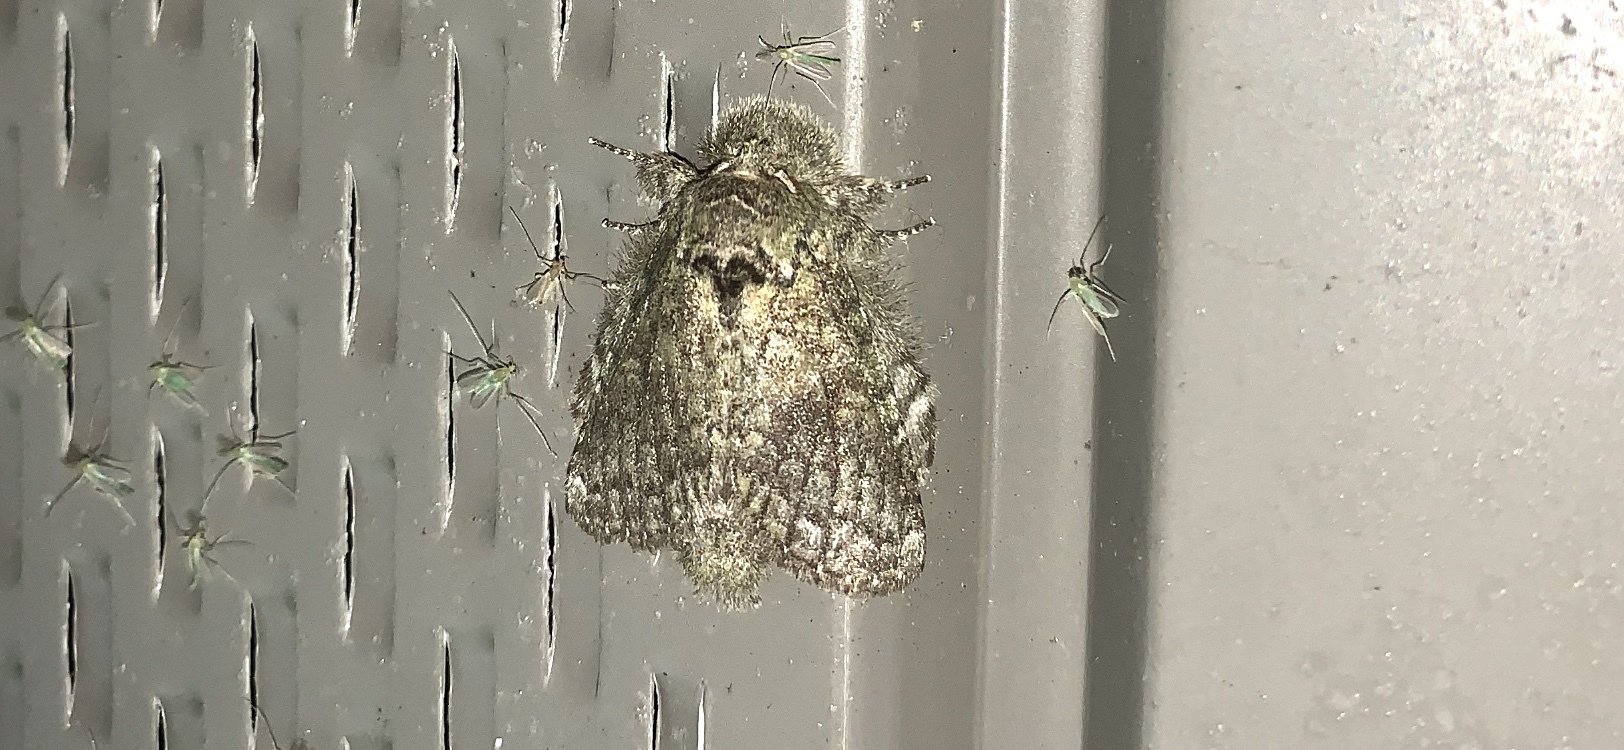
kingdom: Animalia
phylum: Arthropoda
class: Insecta
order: Lepidoptera
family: Notodontidae
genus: Disphragis
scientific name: Disphragis Cecrita guttivitta
